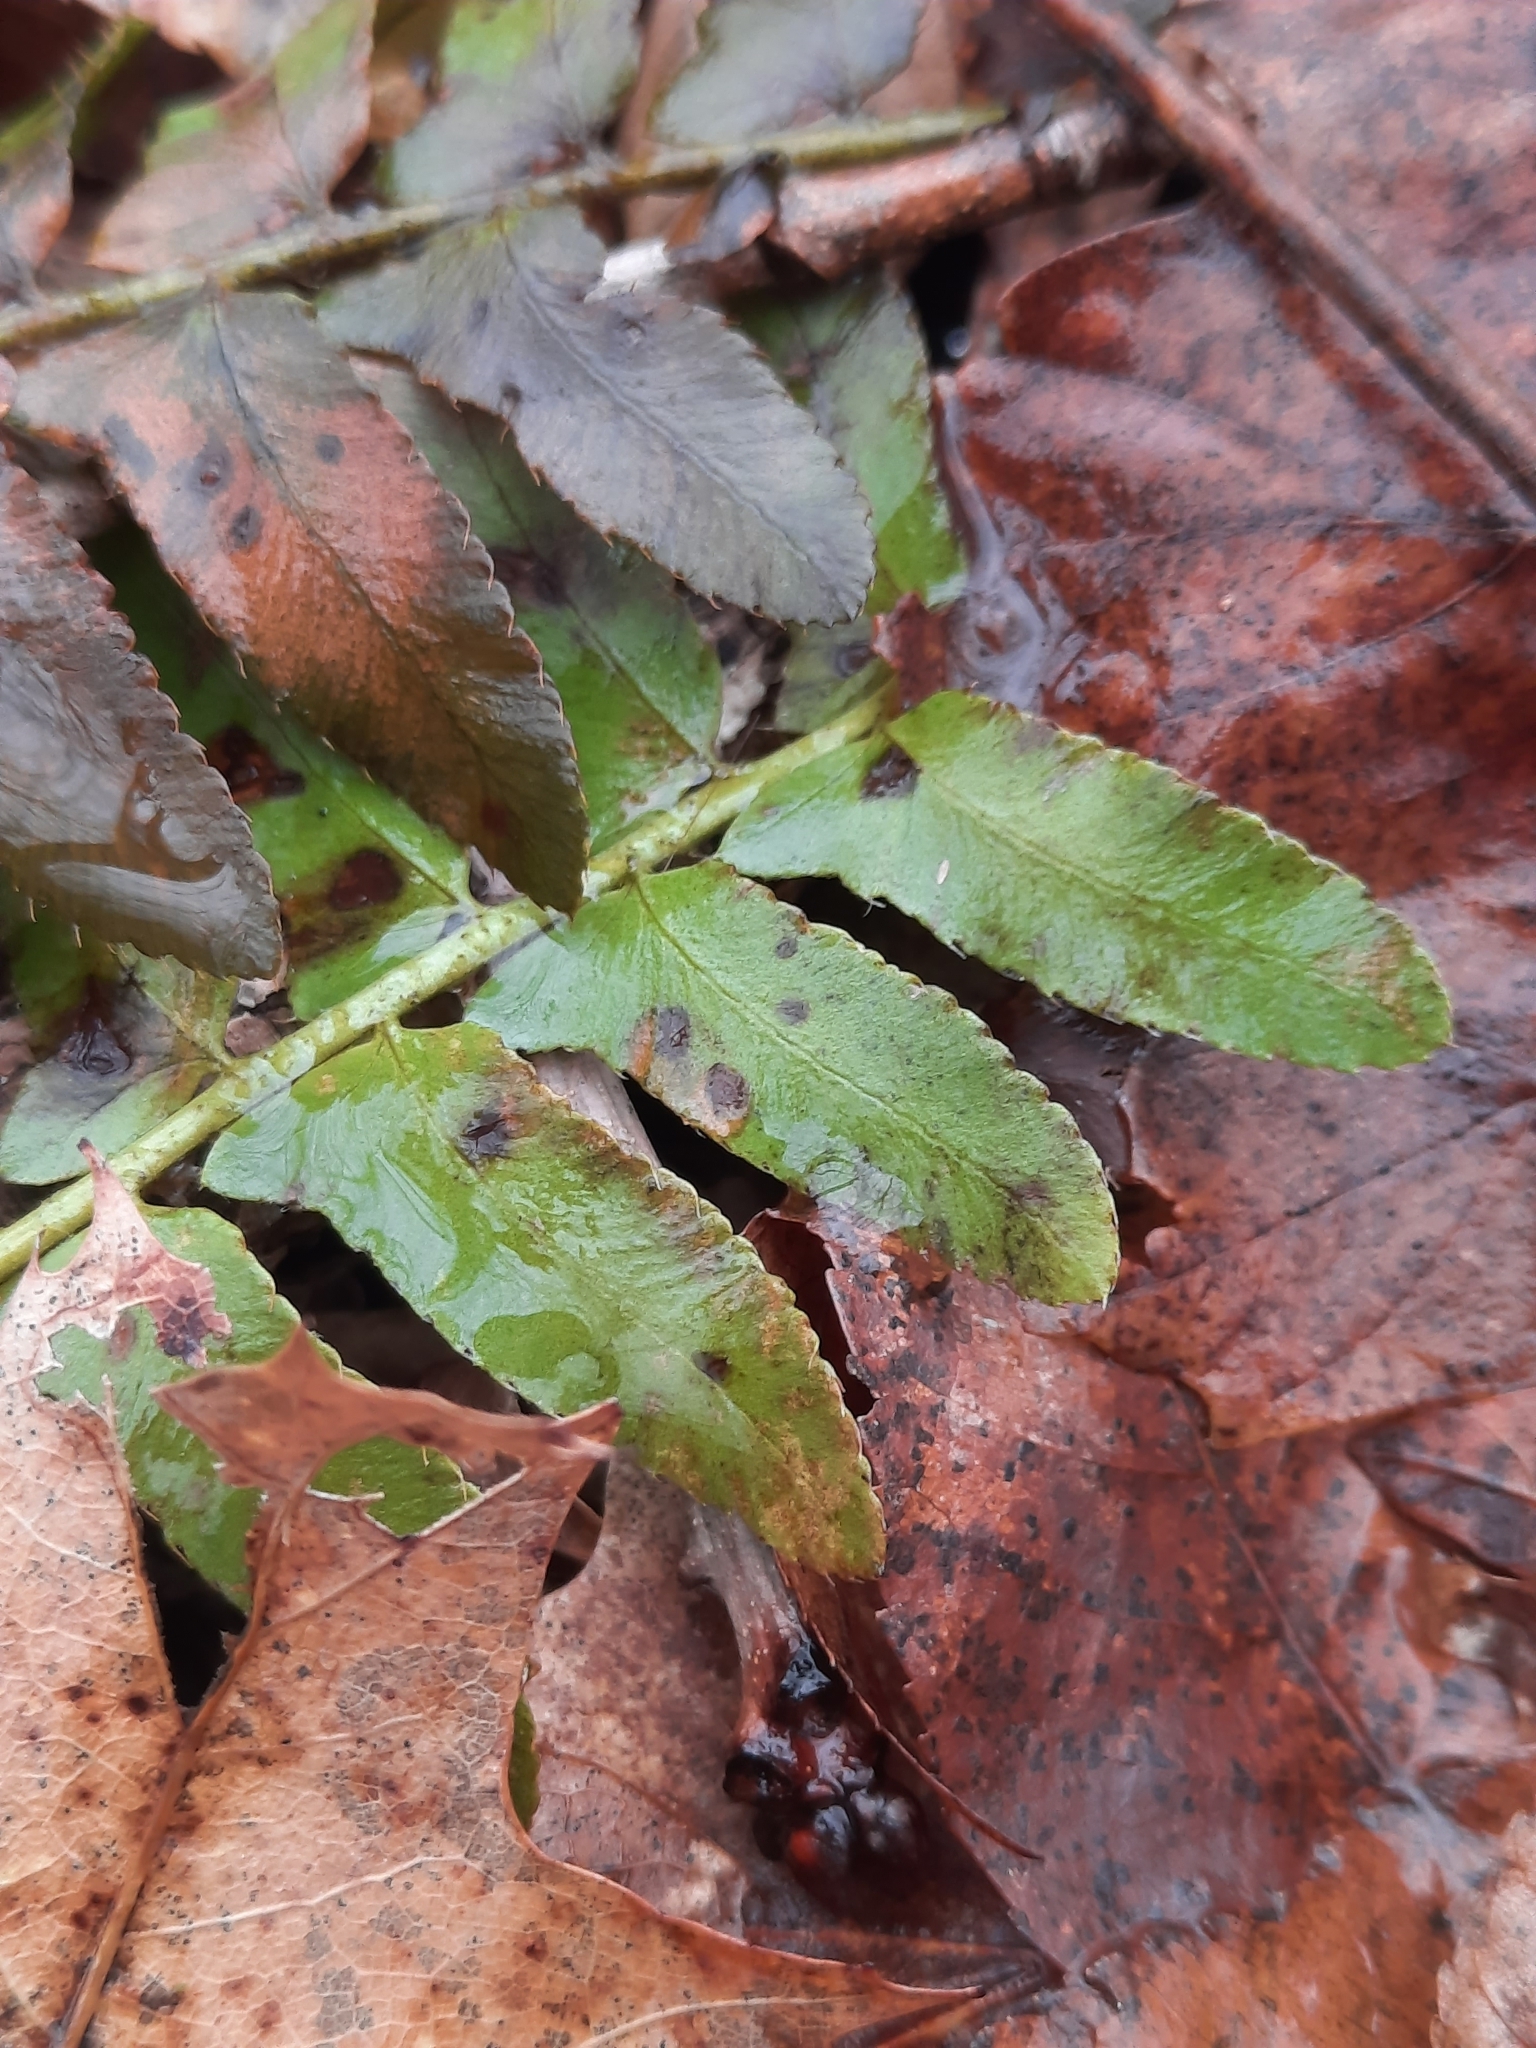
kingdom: Plantae
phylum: Tracheophyta
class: Polypodiopsida
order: Polypodiales
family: Dryopteridaceae
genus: Polystichum
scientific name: Polystichum acrostichoides
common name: Christmas fern
